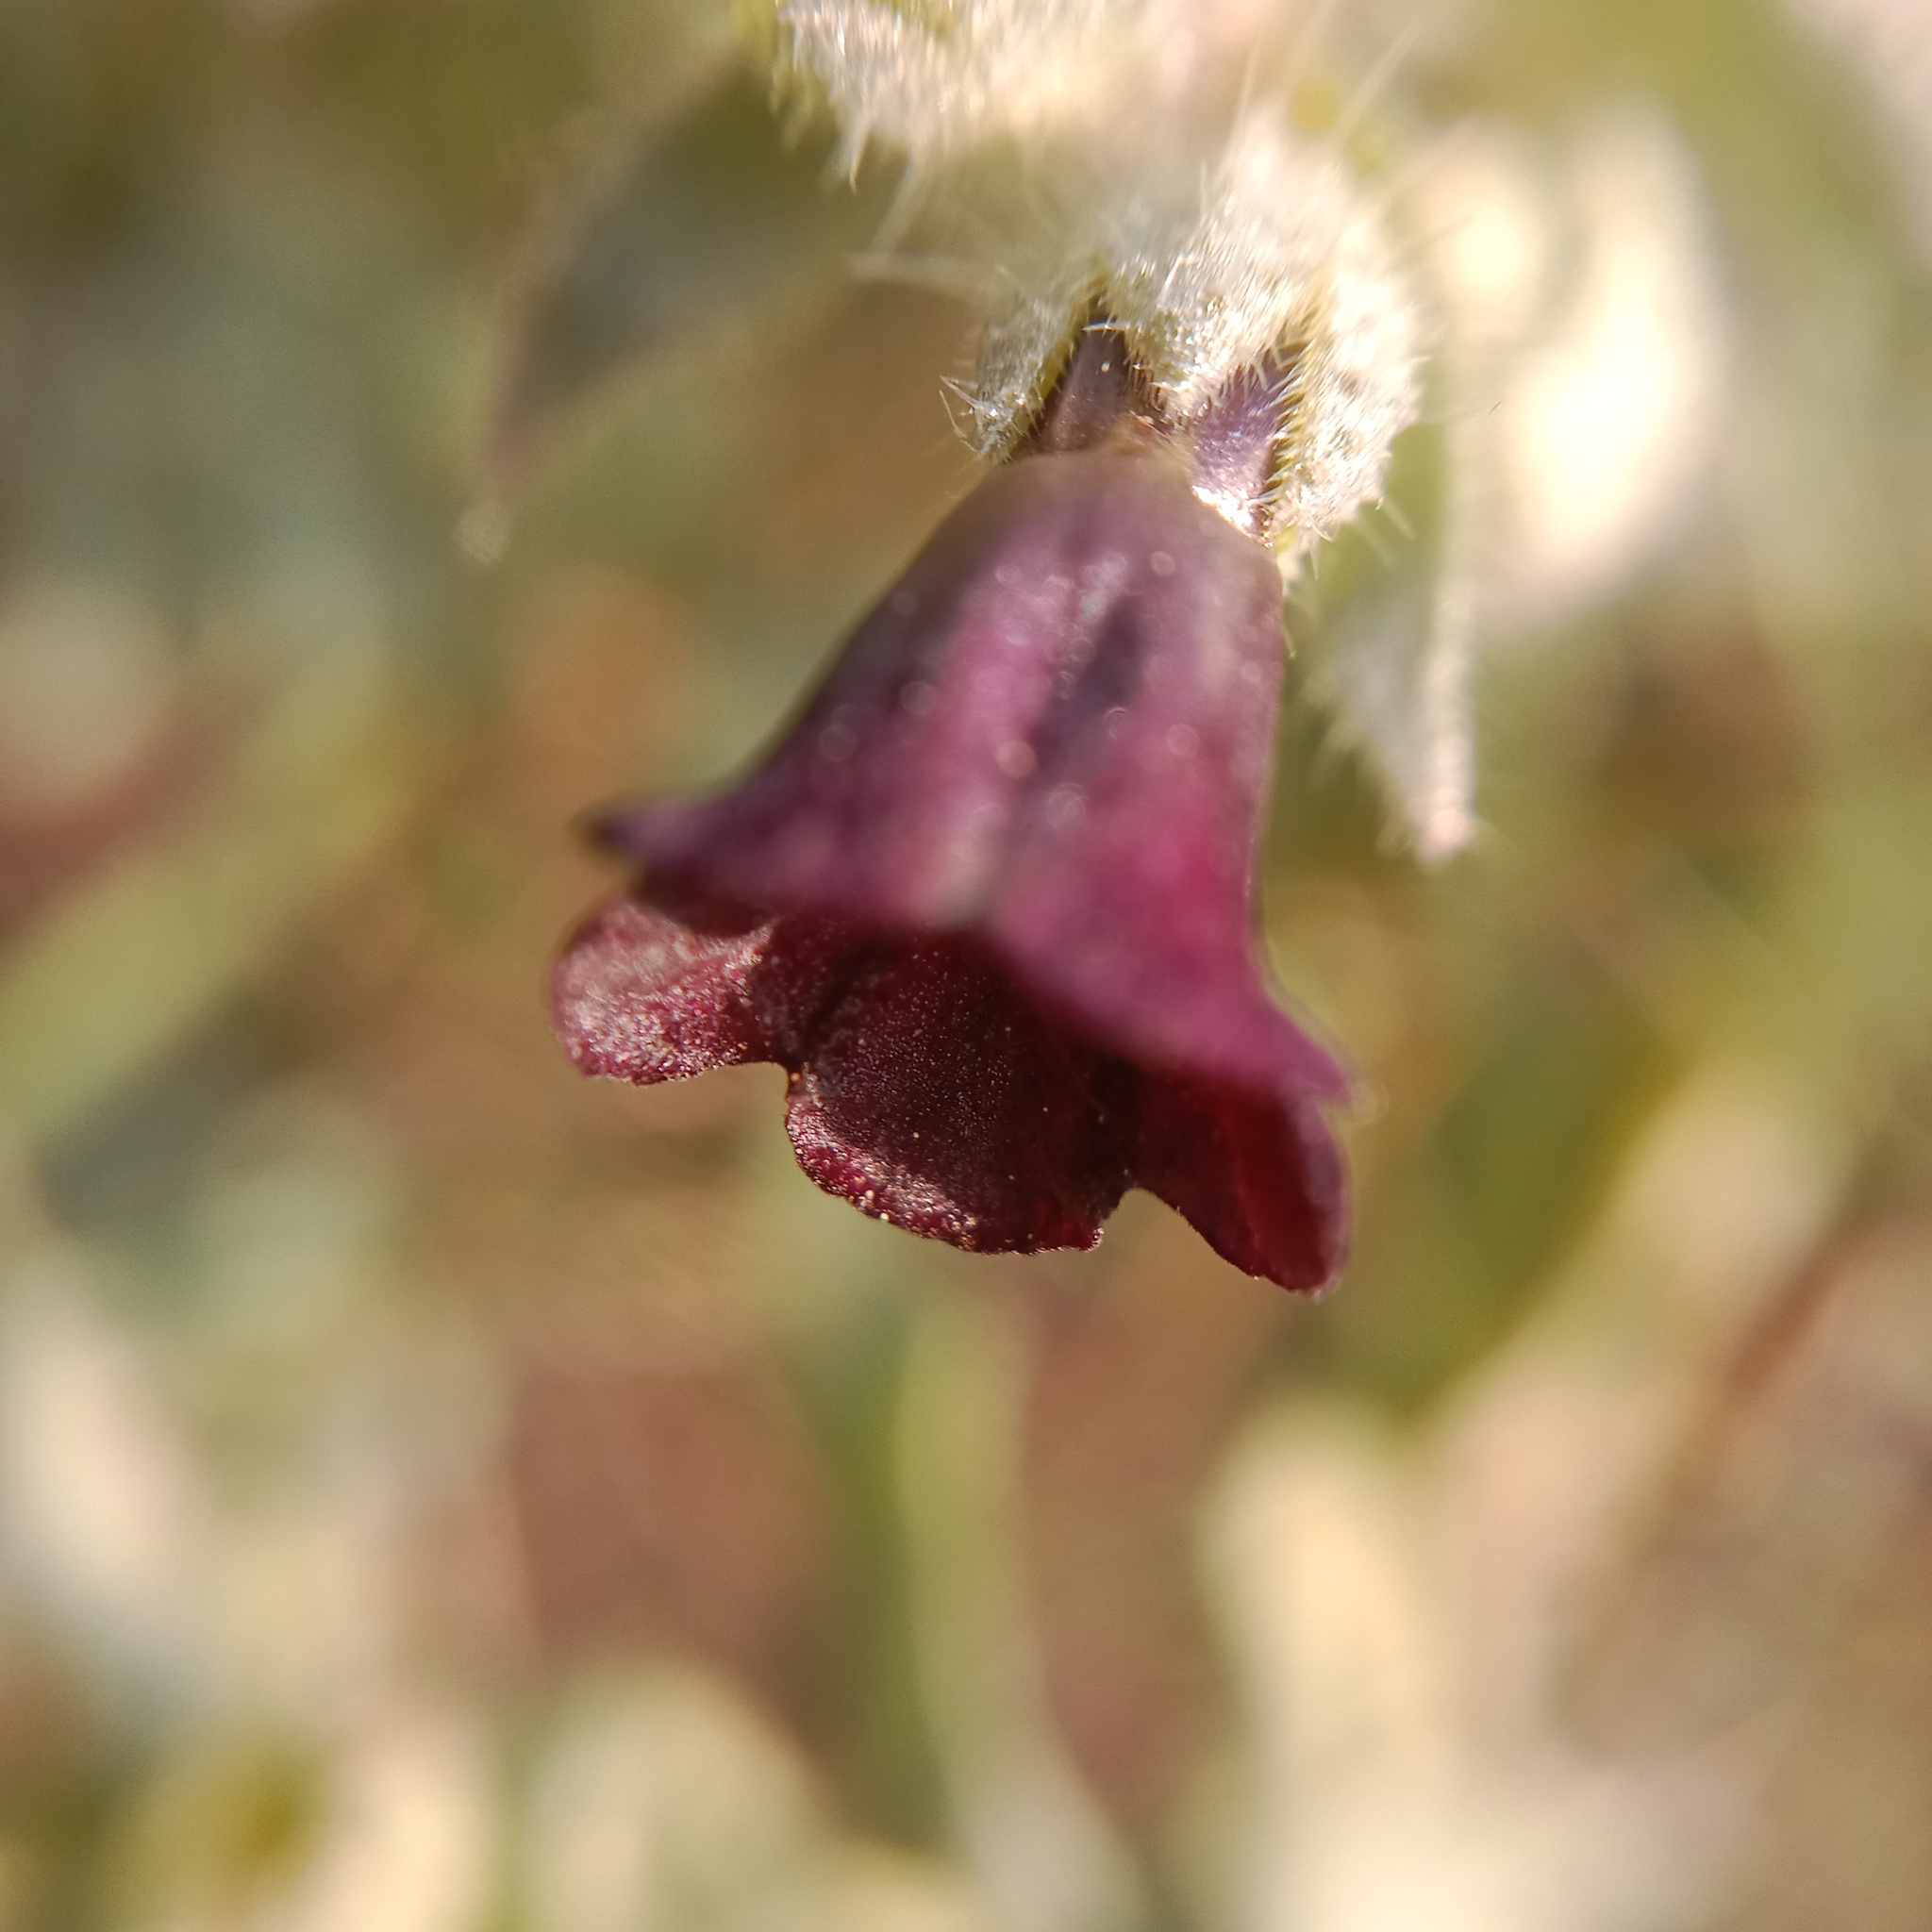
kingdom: Plantae
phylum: Tracheophyta
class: Magnoliopsida
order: Boraginales
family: Boraginaceae
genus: Nonea
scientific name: Nonea pulla
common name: Brown nonea
